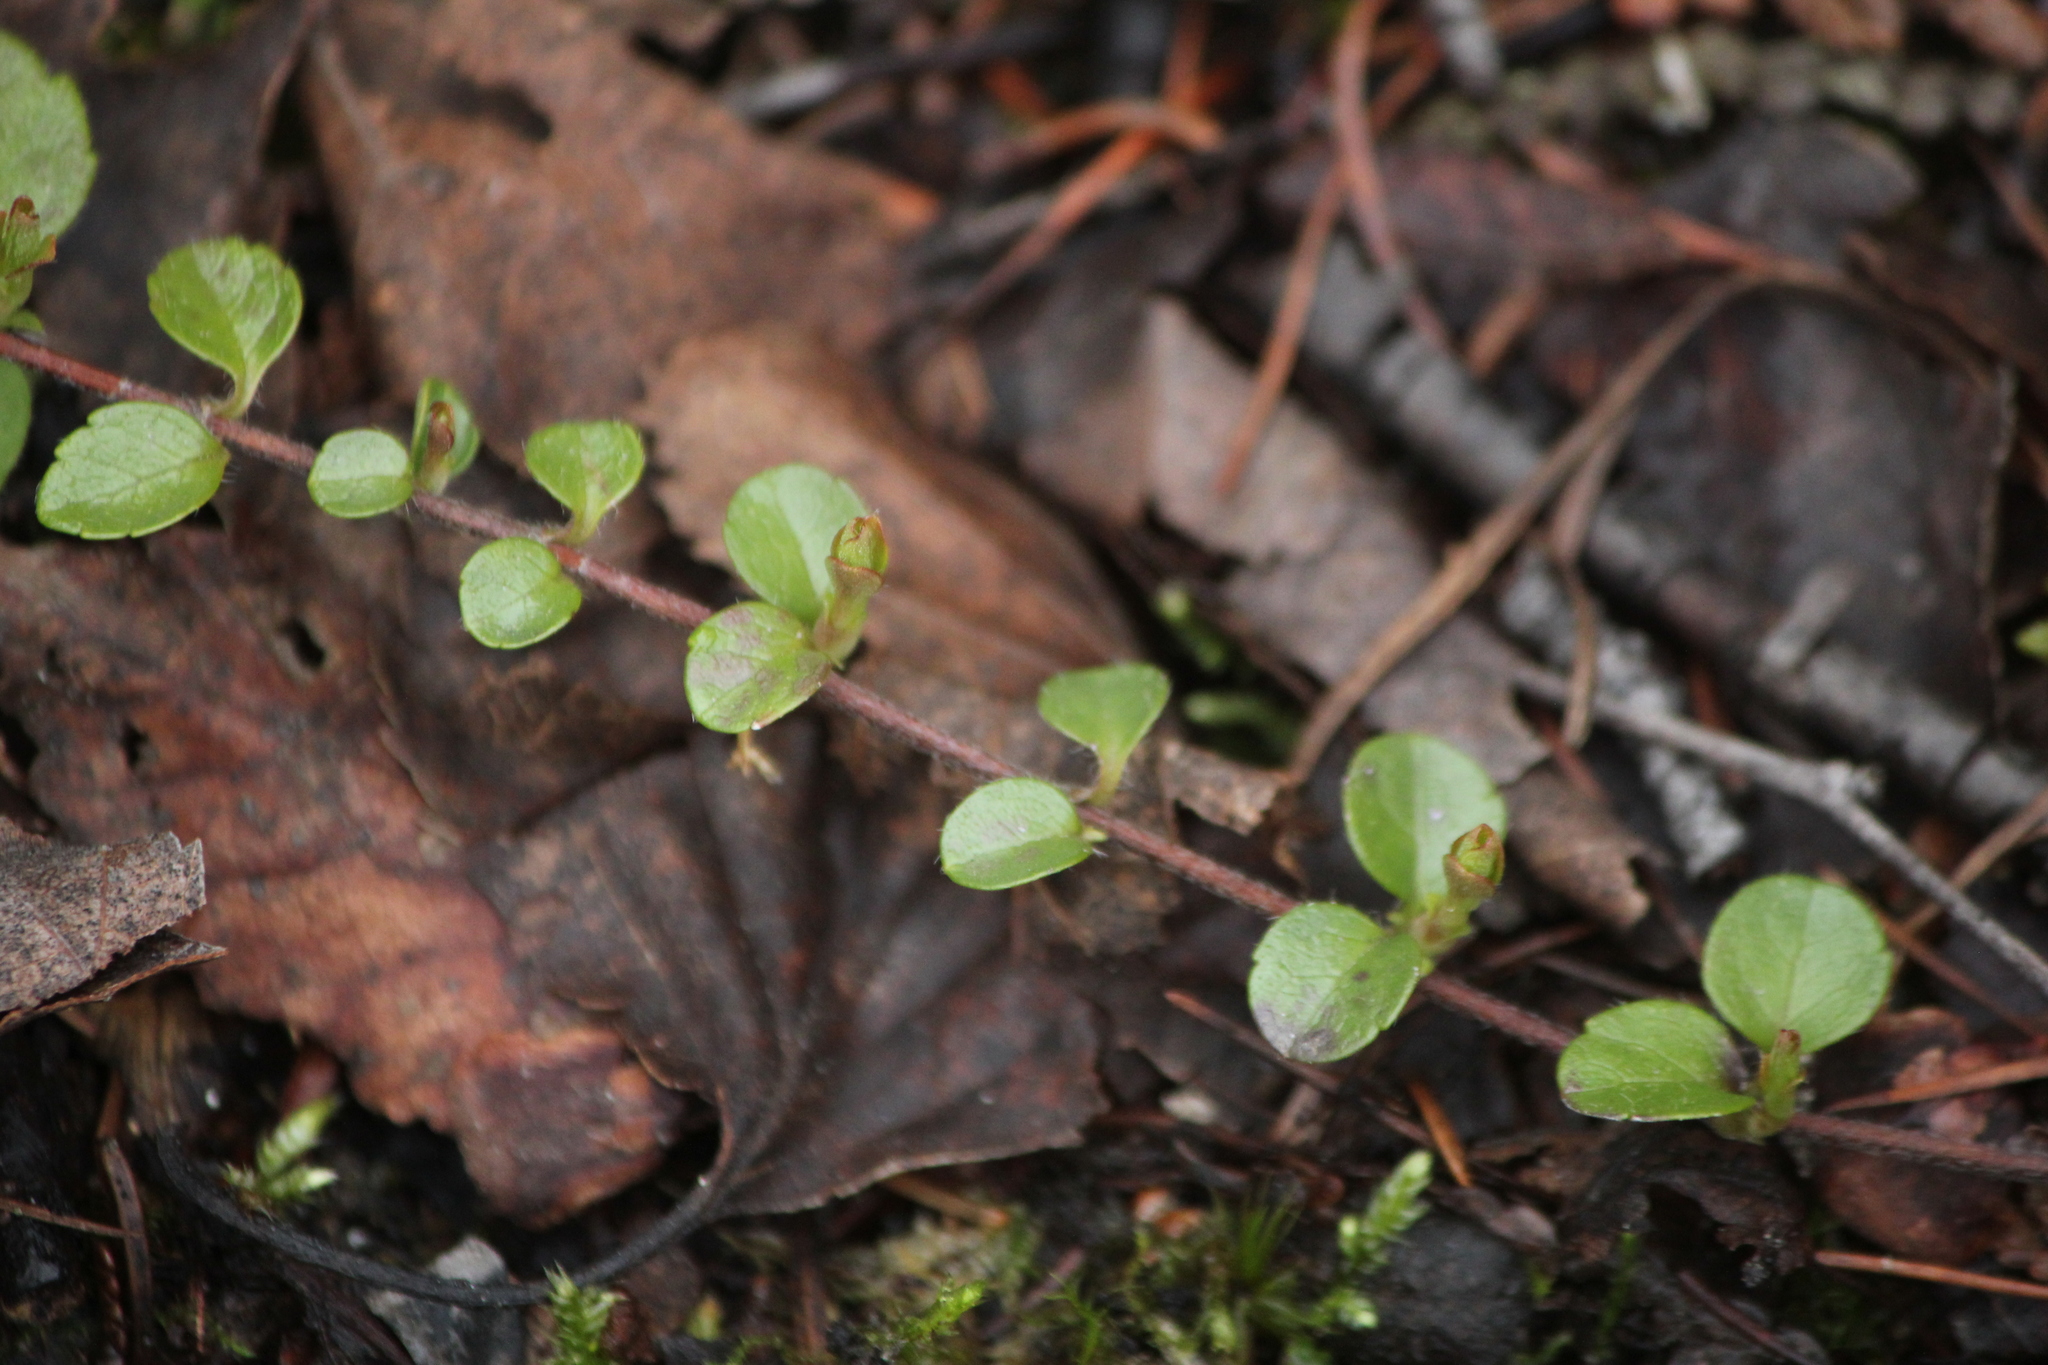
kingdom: Plantae
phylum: Tracheophyta
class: Magnoliopsida
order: Dipsacales
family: Caprifoliaceae
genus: Linnaea
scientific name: Linnaea borealis
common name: Twinflower
